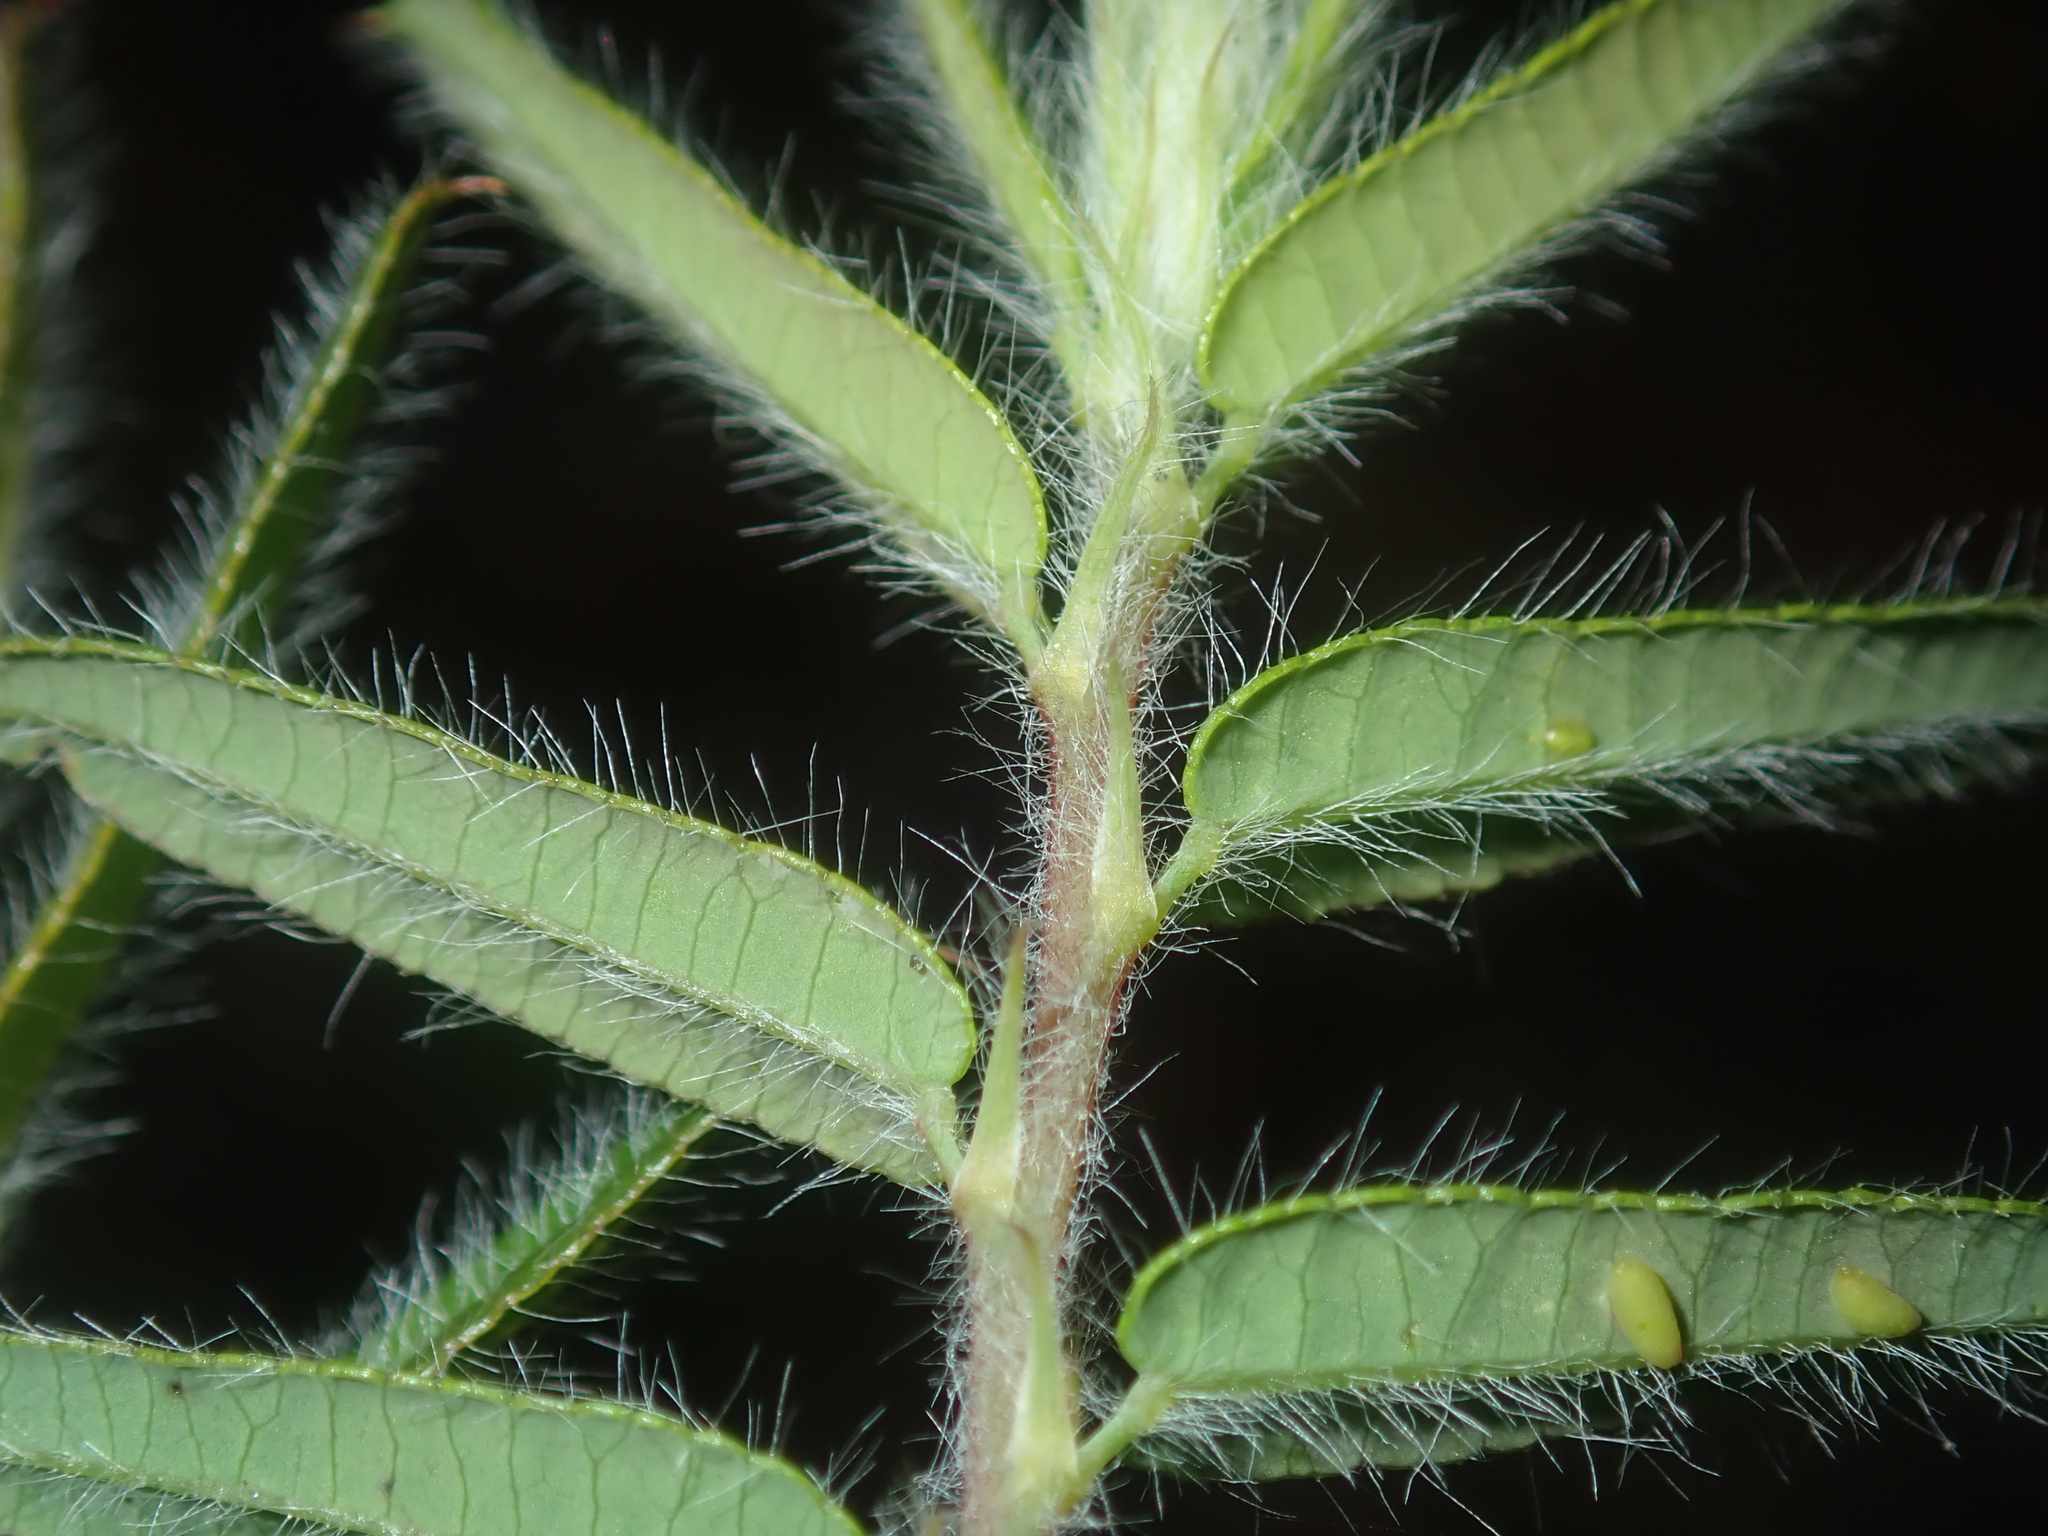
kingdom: Plantae
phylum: Tracheophyta
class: Magnoliopsida
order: Fabales
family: Fabaceae
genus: Bossiaea
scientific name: Bossiaea eriocarpa
